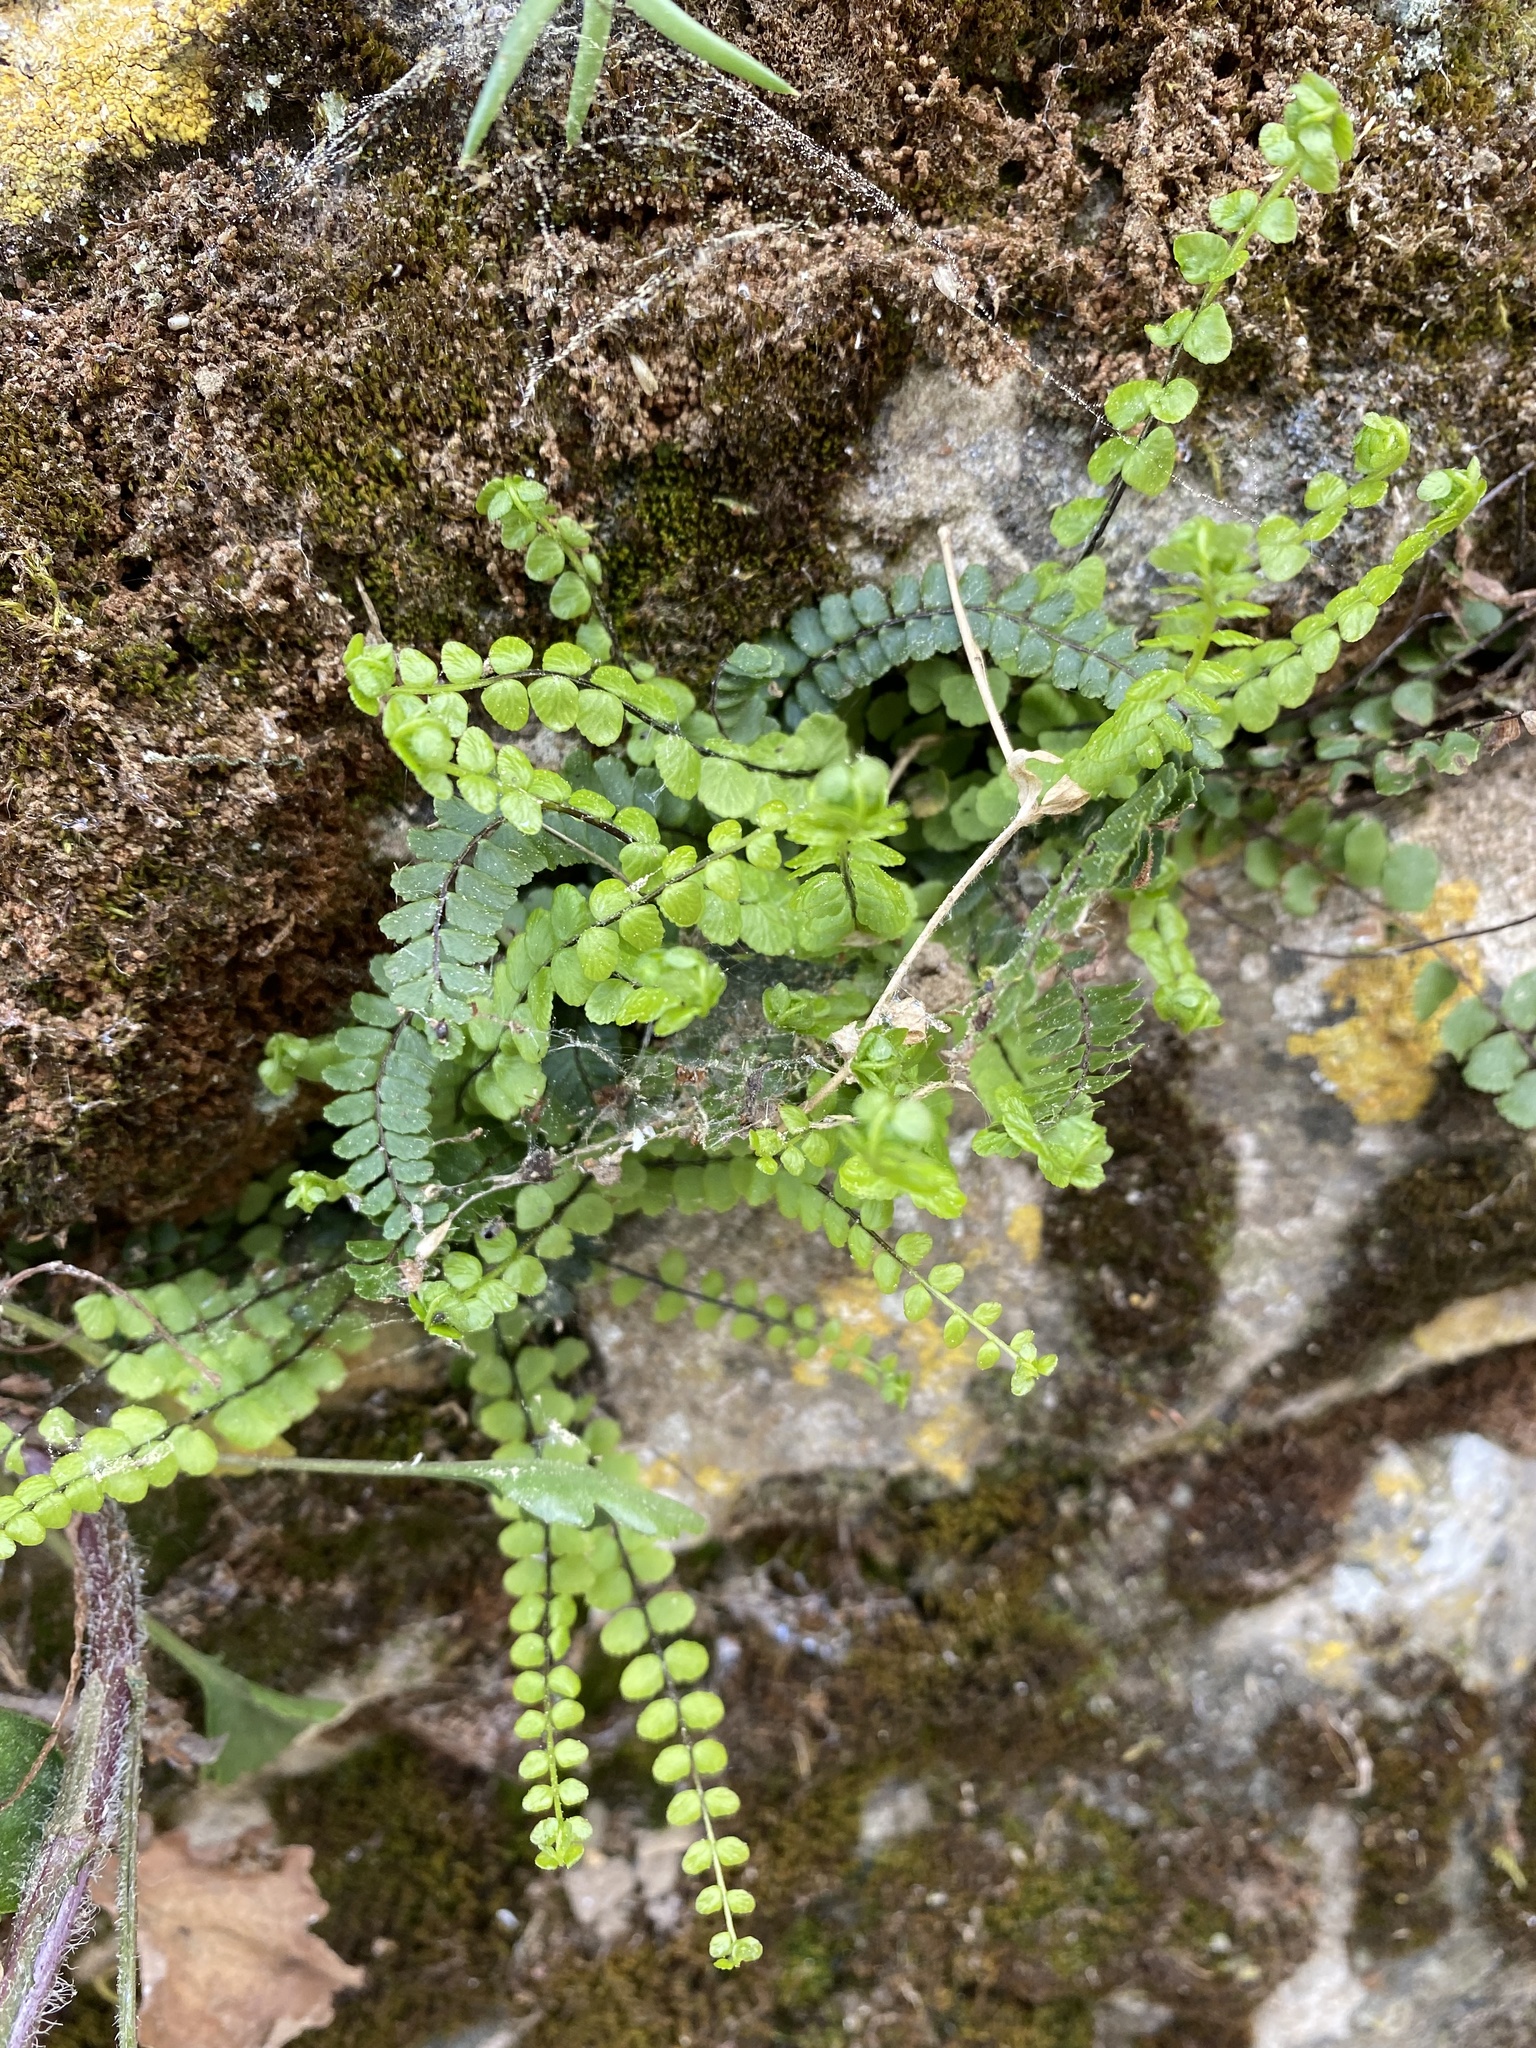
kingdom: Plantae
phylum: Tracheophyta
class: Polypodiopsida
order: Polypodiales
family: Aspleniaceae
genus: Asplenium
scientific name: Asplenium trichomanes
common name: Maidenhair spleenwort
